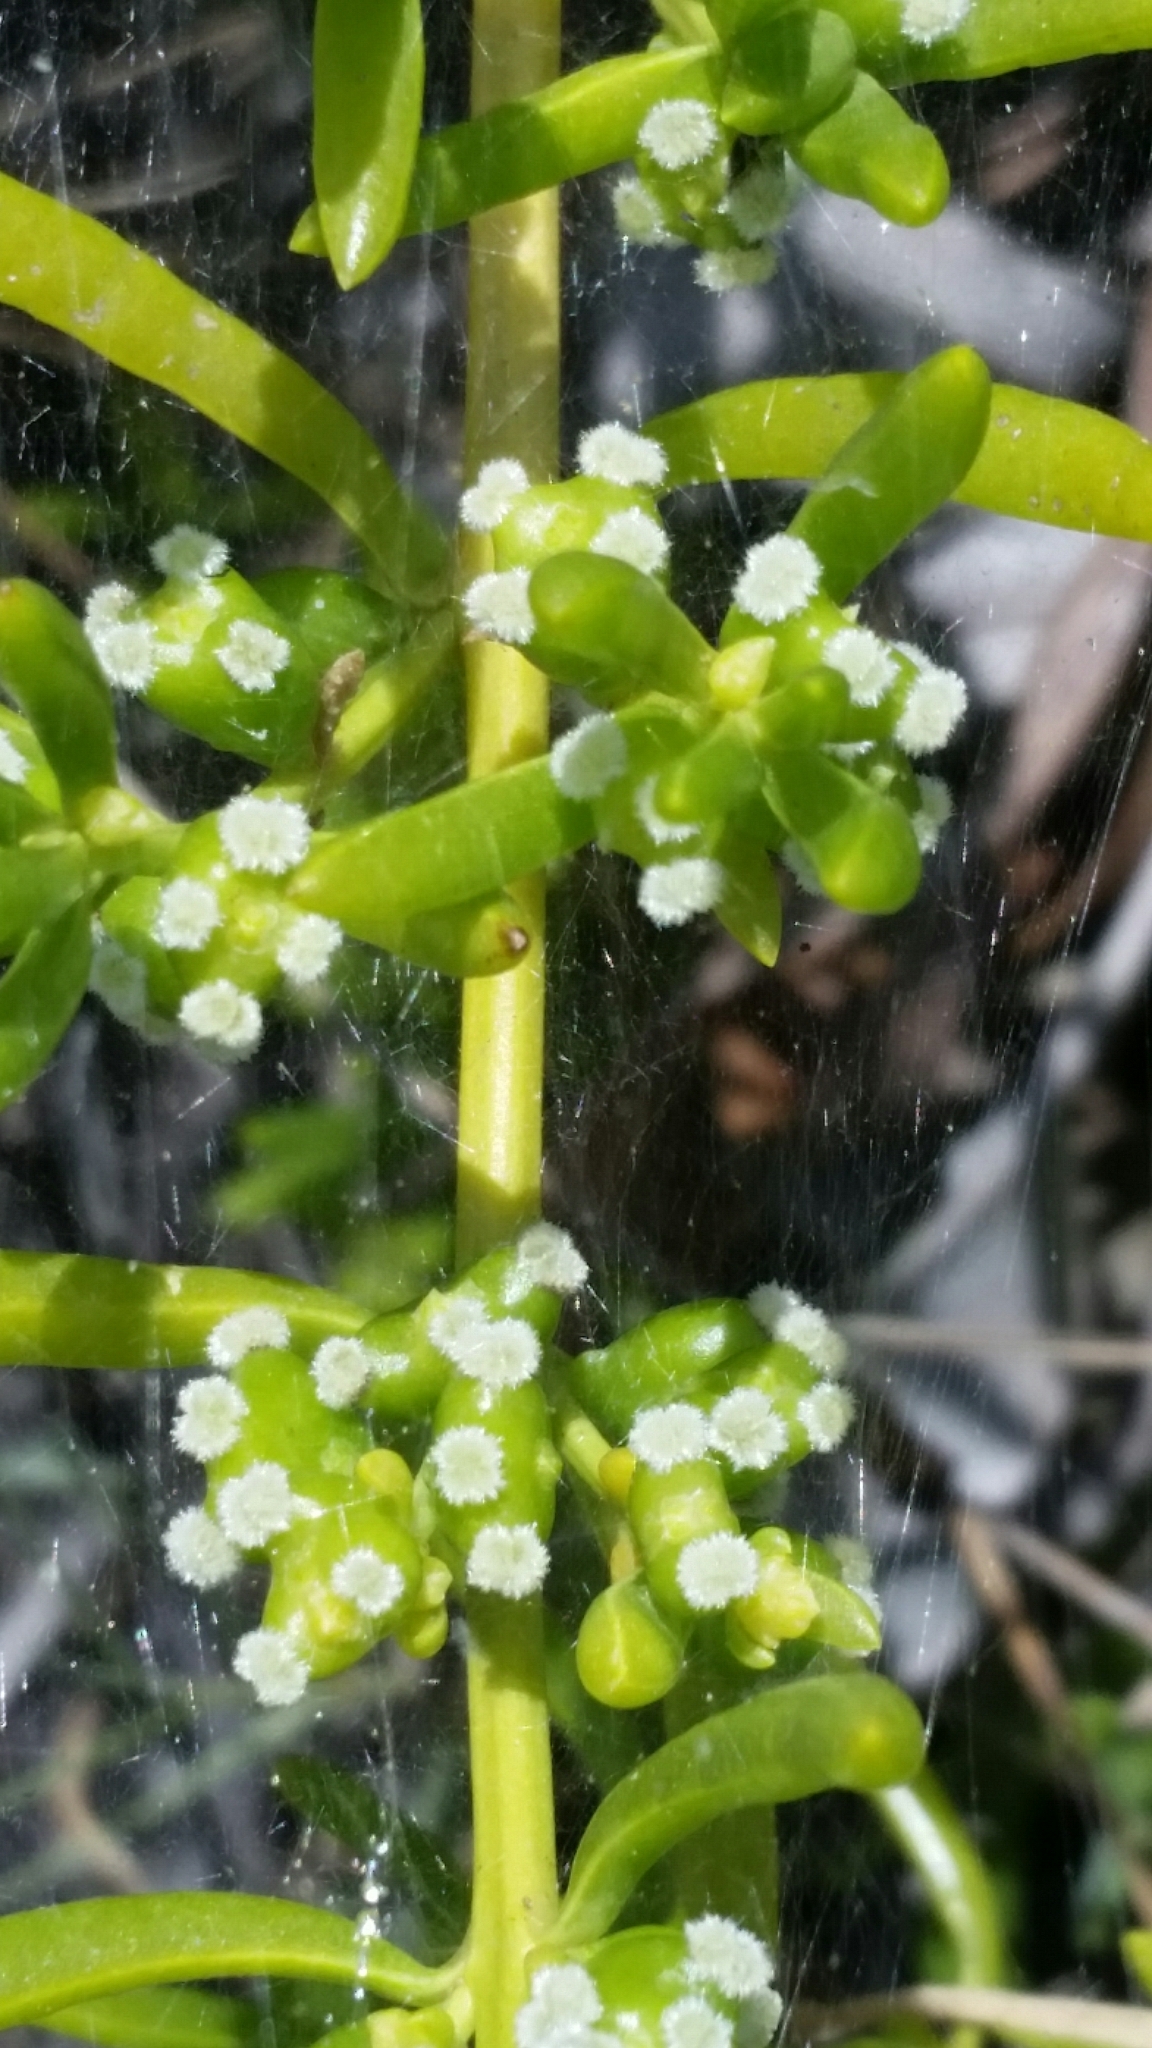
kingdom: Plantae
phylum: Tracheophyta
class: Magnoliopsida
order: Brassicales
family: Bataceae
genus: Batis
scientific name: Batis maritima
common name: Turtleweed
